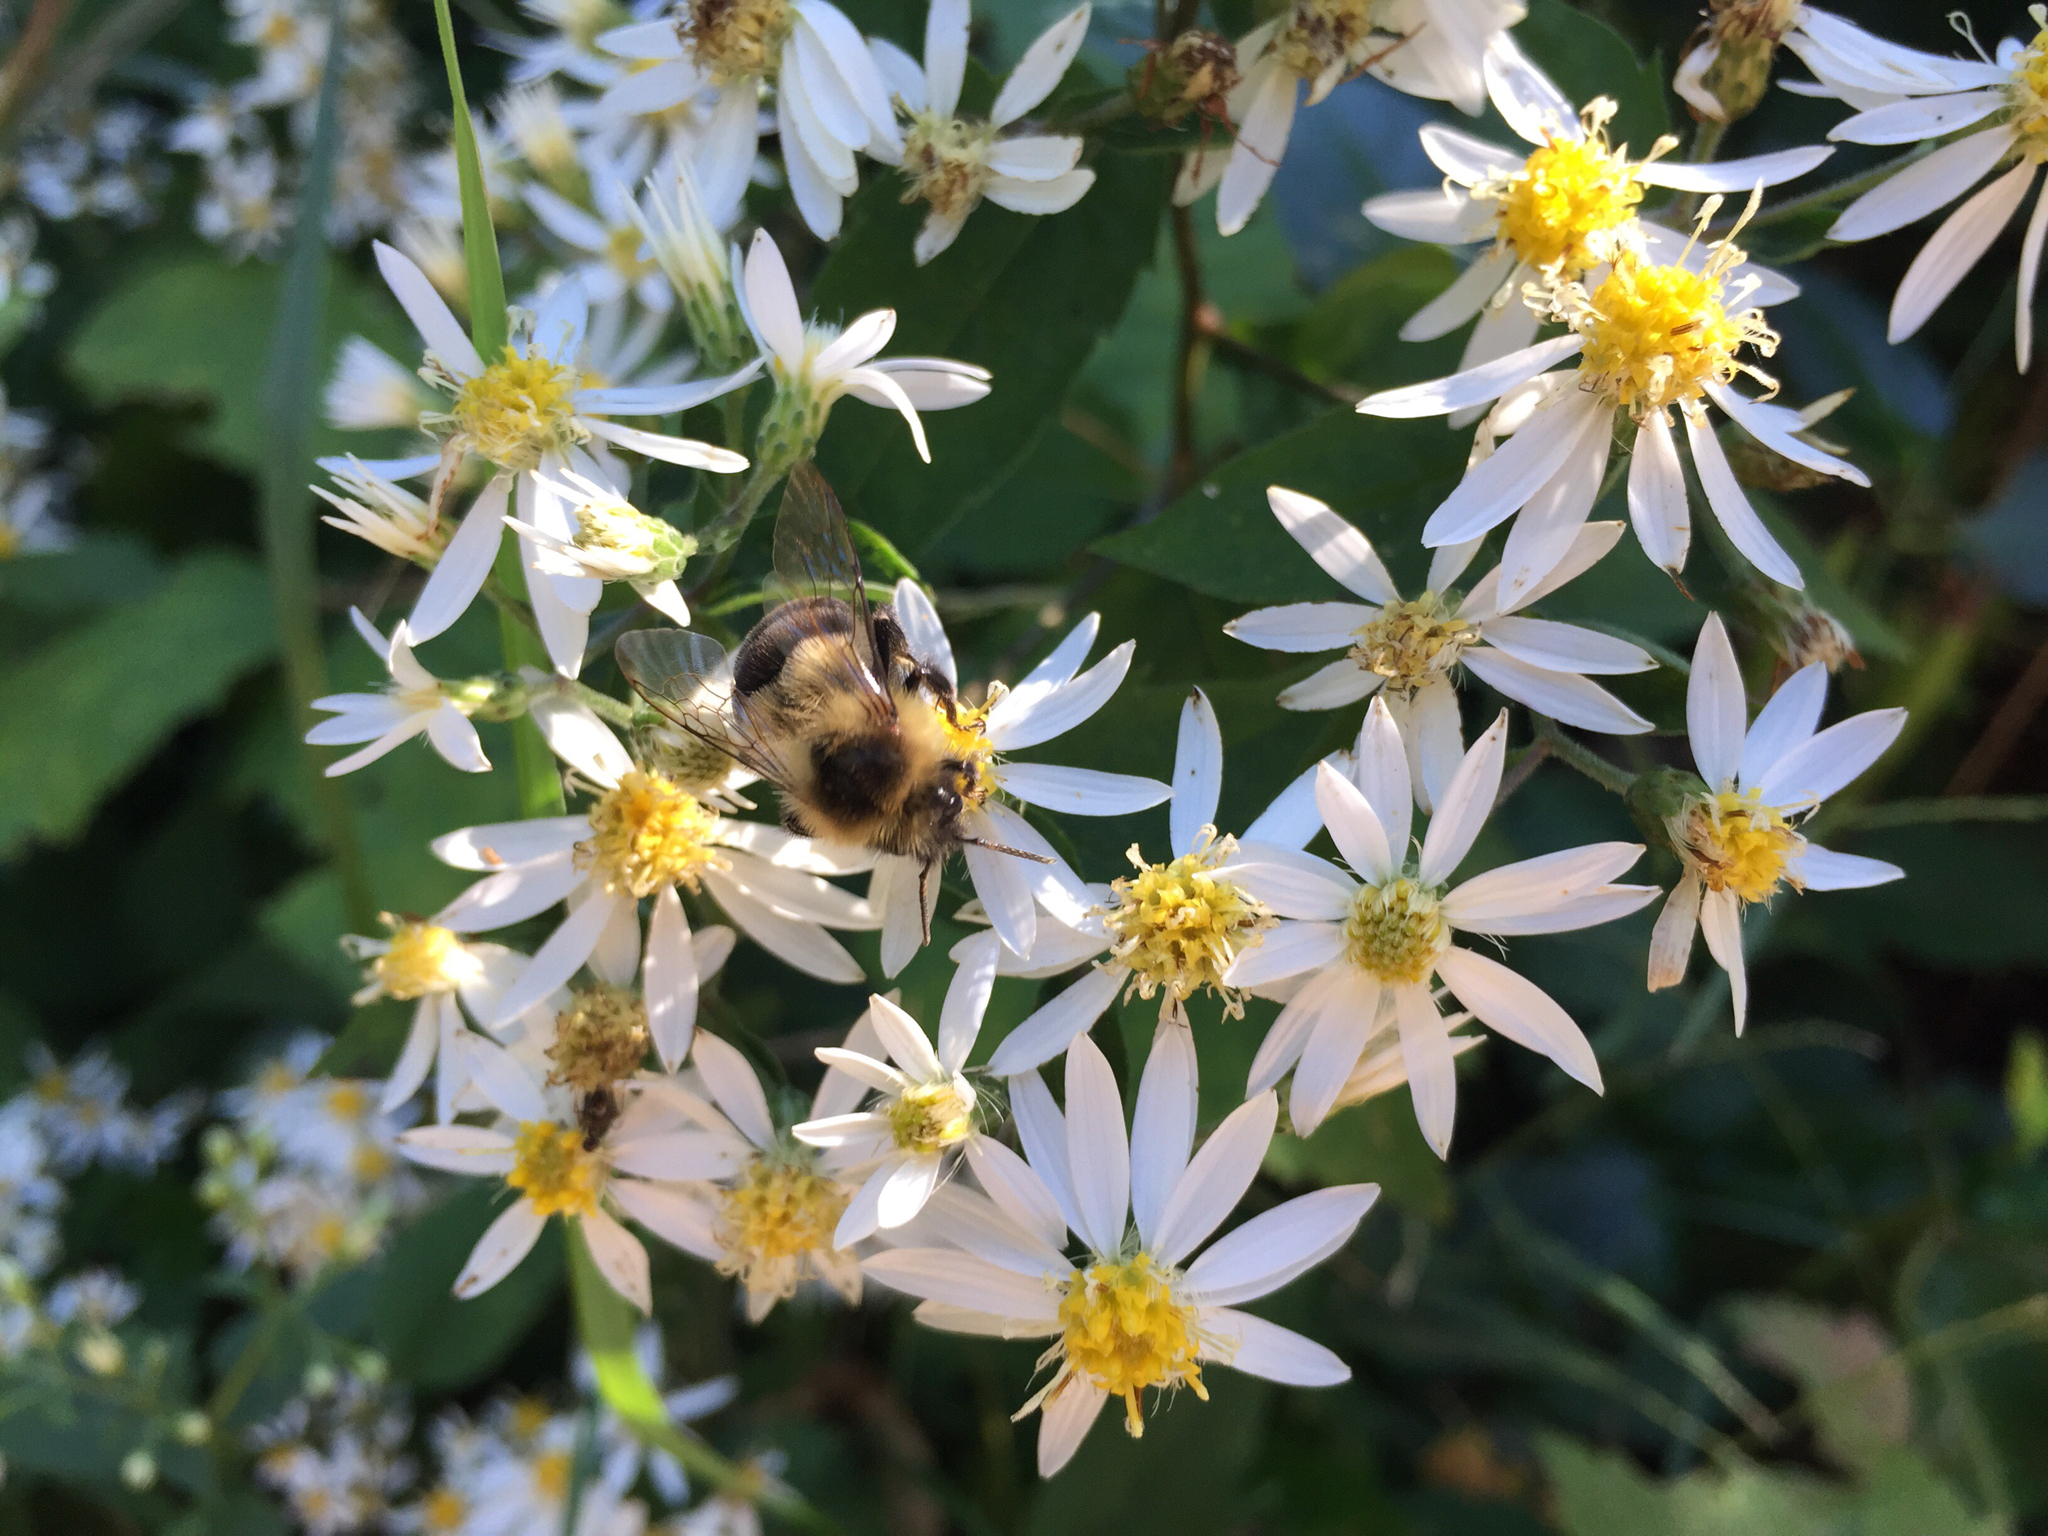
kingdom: Animalia
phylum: Arthropoda
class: Insecta
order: Hymenoptera
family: Apidae
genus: Bombus
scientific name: Bombus impatiens
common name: Common eastern bumble bee
